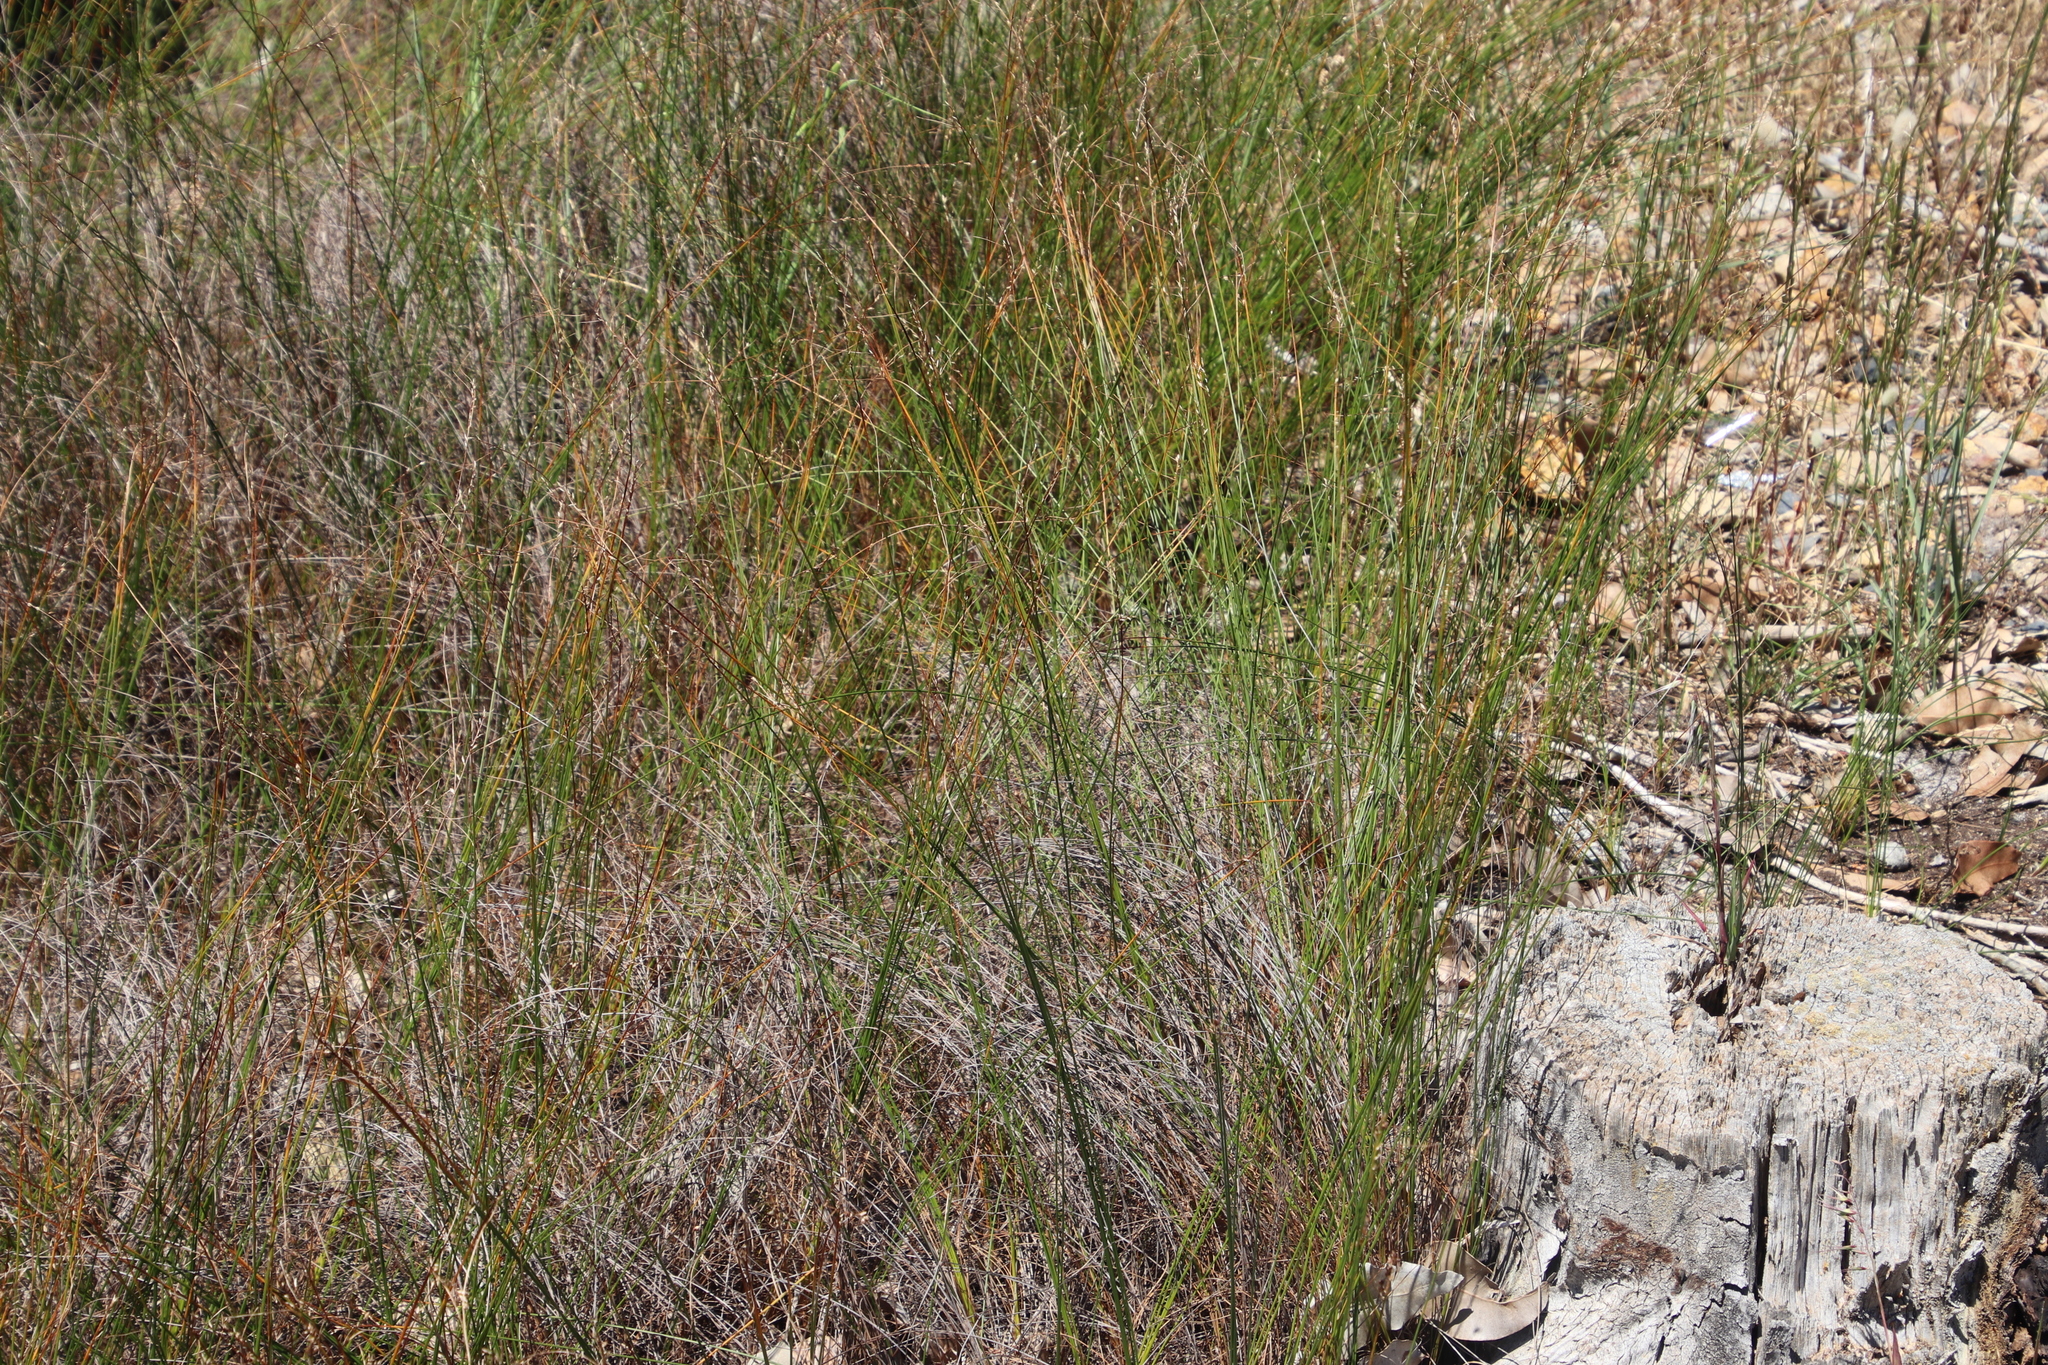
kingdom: Plantae
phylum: Tracheophyta
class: Liliopsida
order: Poales
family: Cyperaceae
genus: Ficinia
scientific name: Ficinia secunda
